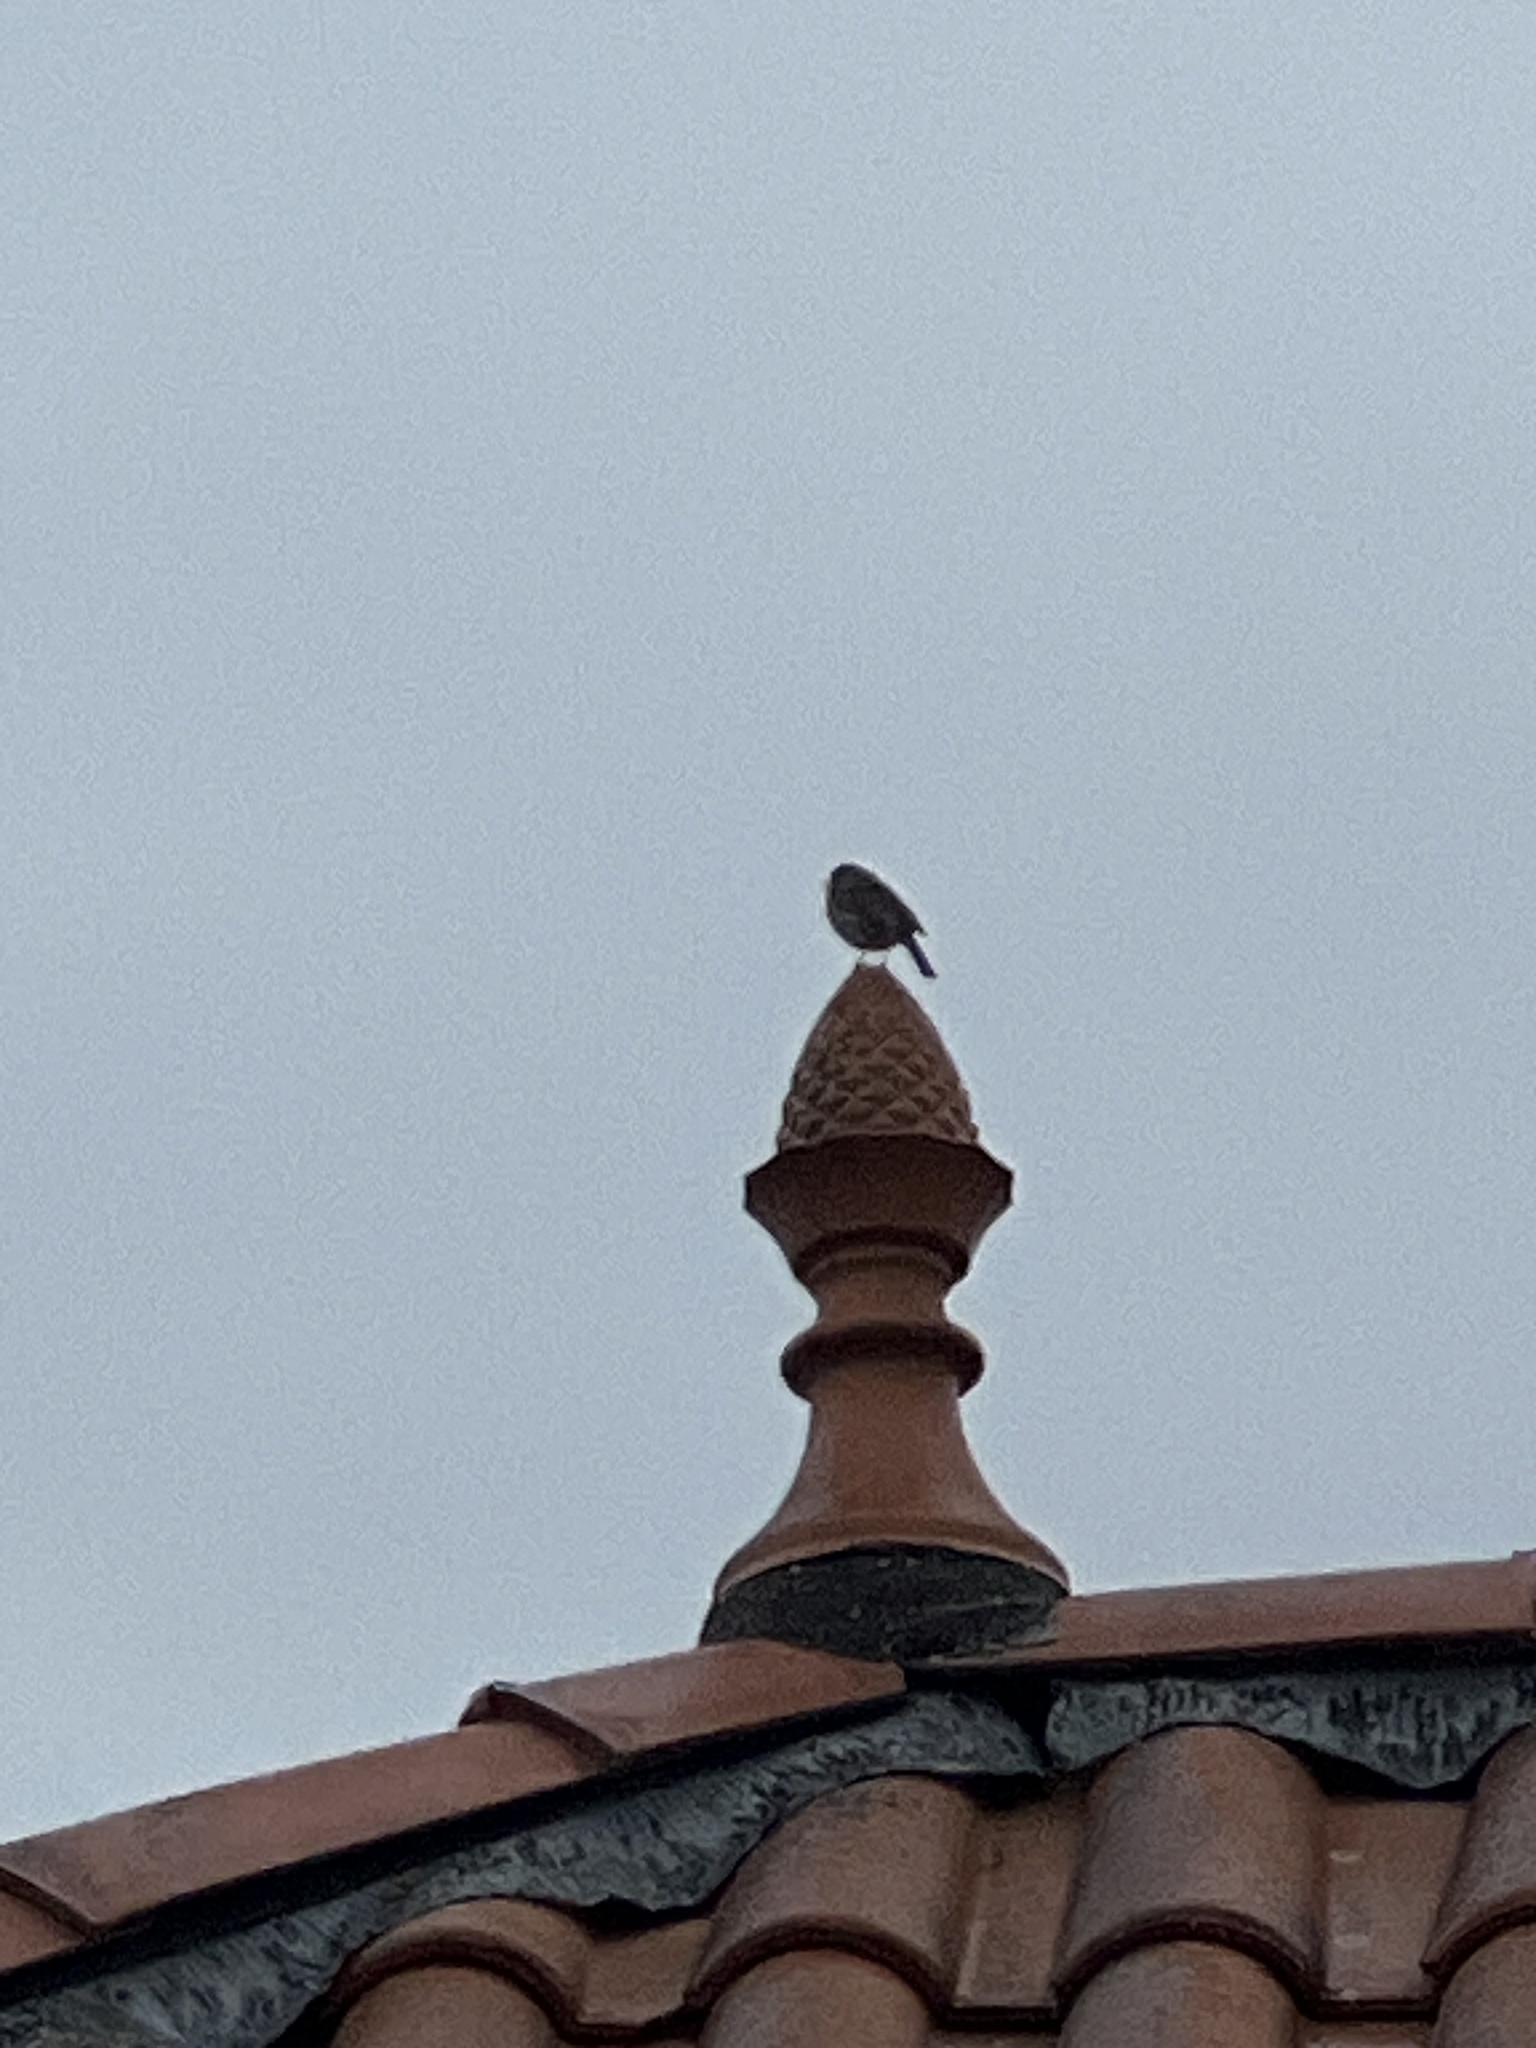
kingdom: Animalia
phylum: Chordata
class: Aves
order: Passeriformes
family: Muscicapidae
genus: Erithacus
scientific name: Erithacus rubecula
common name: European robin
